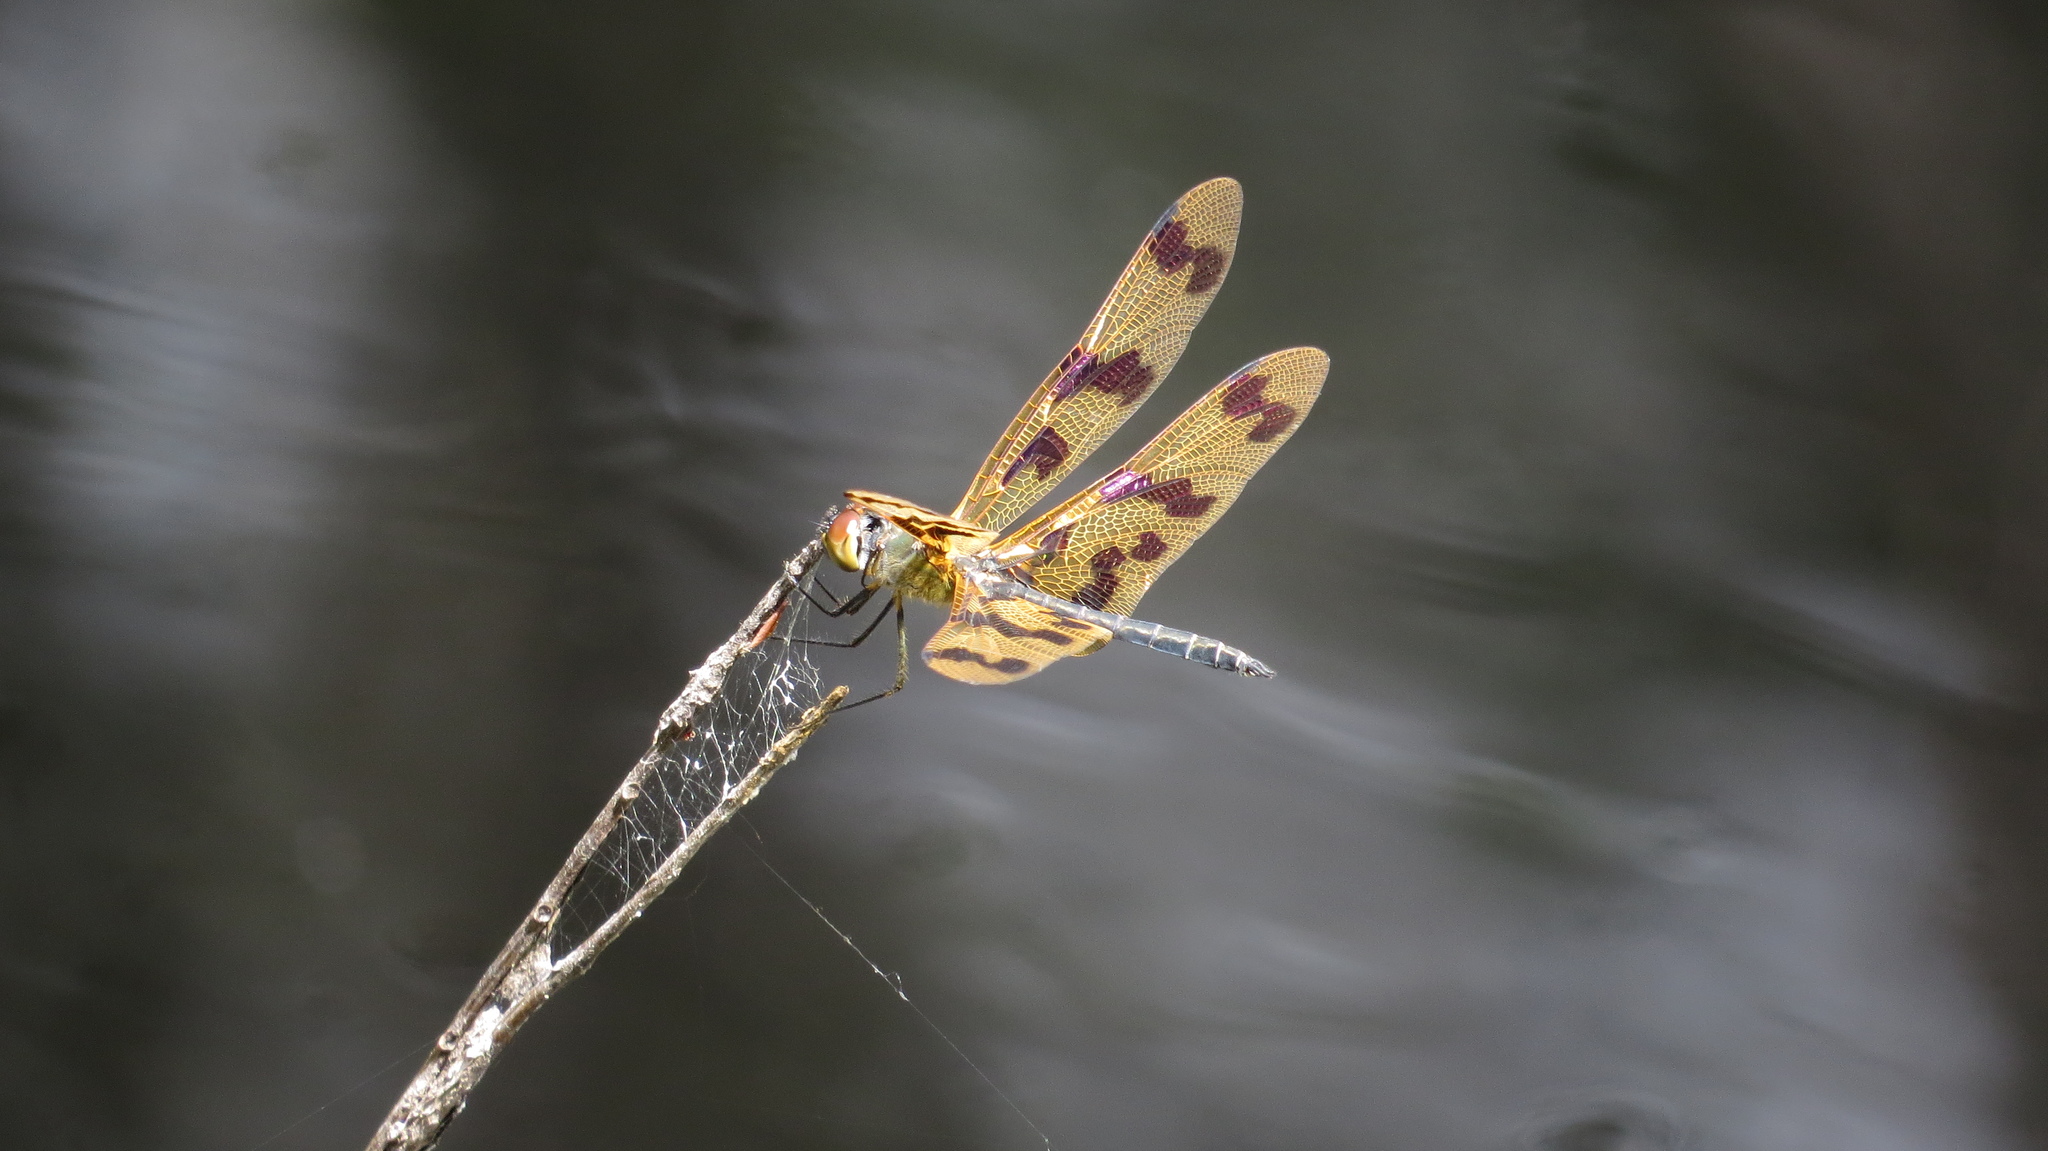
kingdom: Animalia
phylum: Arthropoda
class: Insecta
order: Odonata
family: Libellulidae
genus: Rhyothemis
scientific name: Rhyothemis graphiptera
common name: Graphic flutterer
